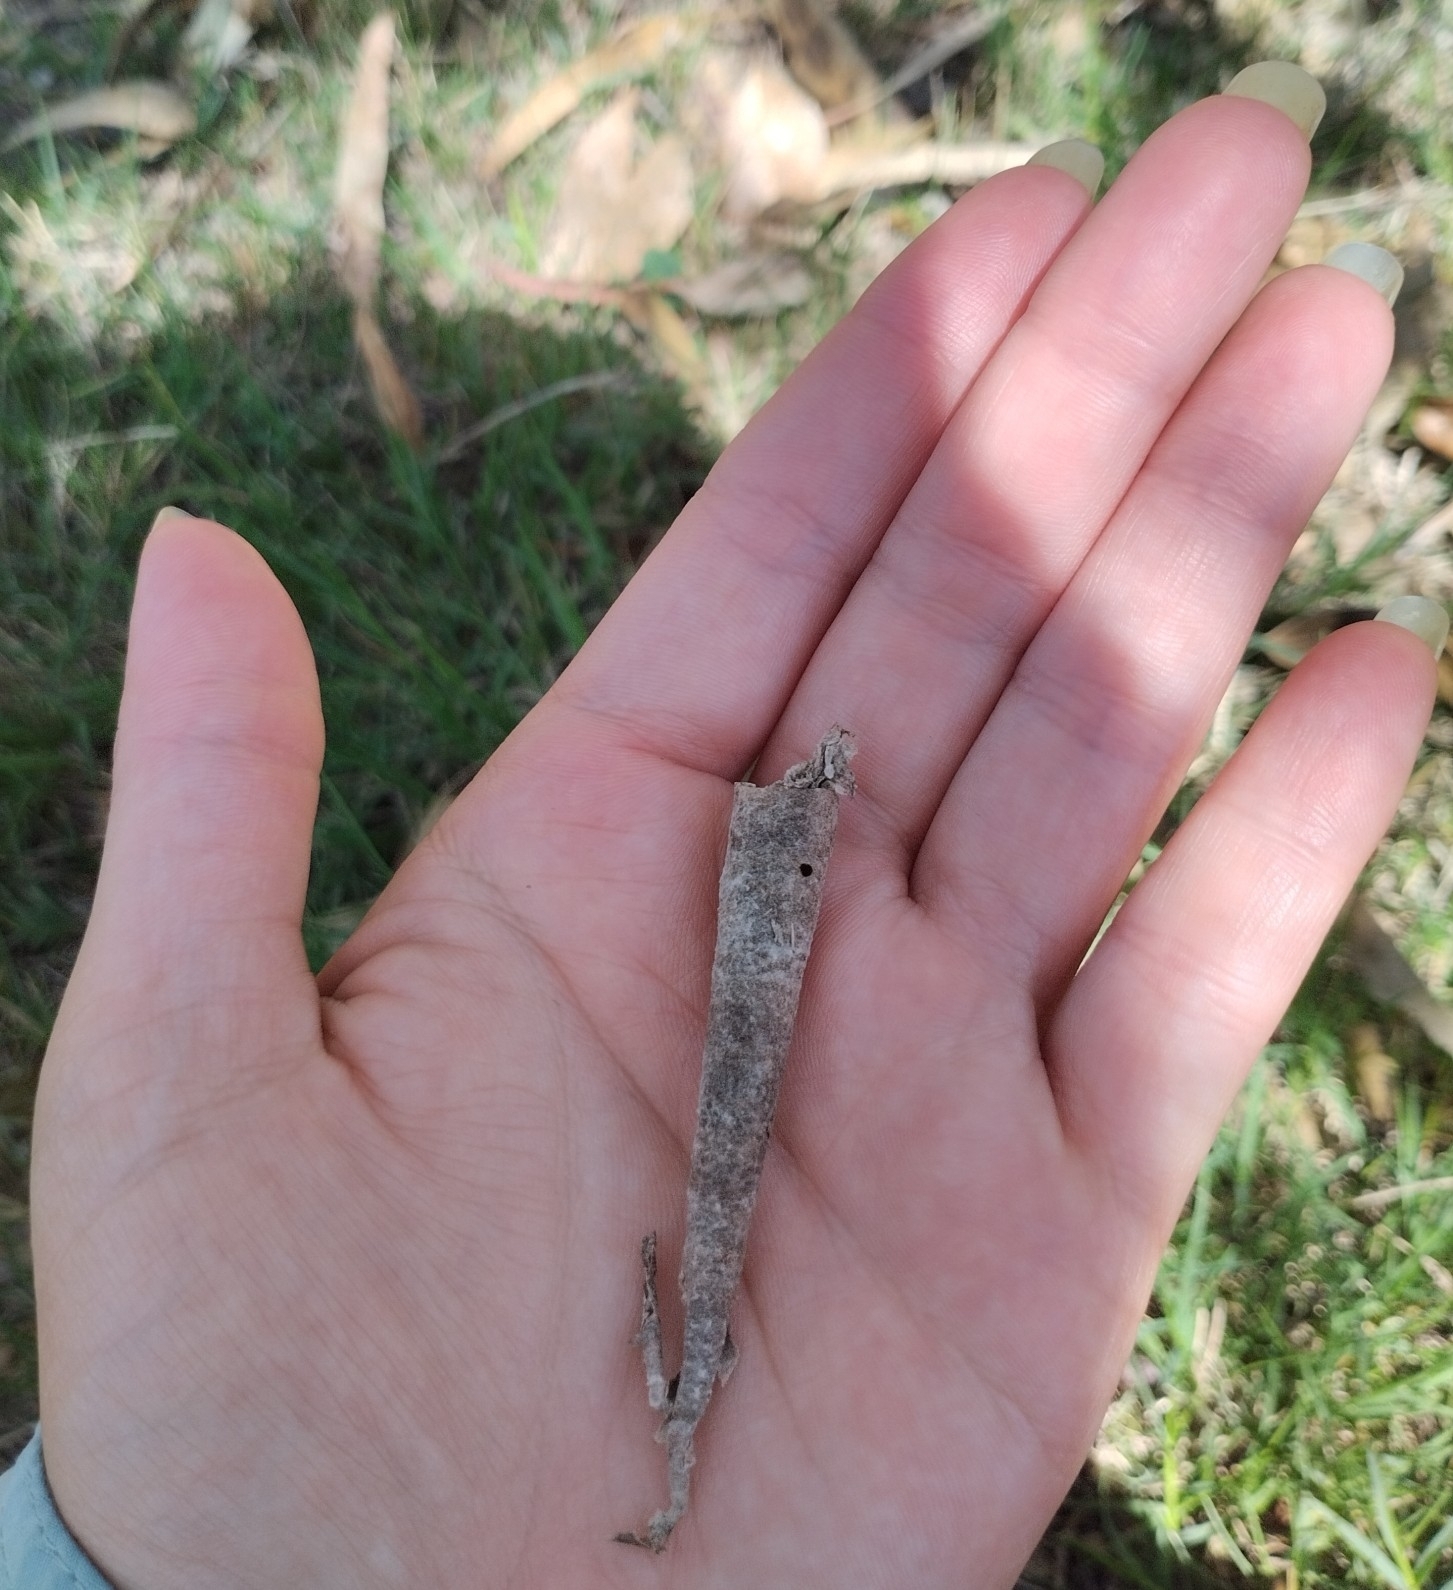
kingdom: Animalia
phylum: Arthropoda
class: Insecta
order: Lepidoptera
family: Psychidae
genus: Oiketicus
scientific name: Oiketicus geyeri
